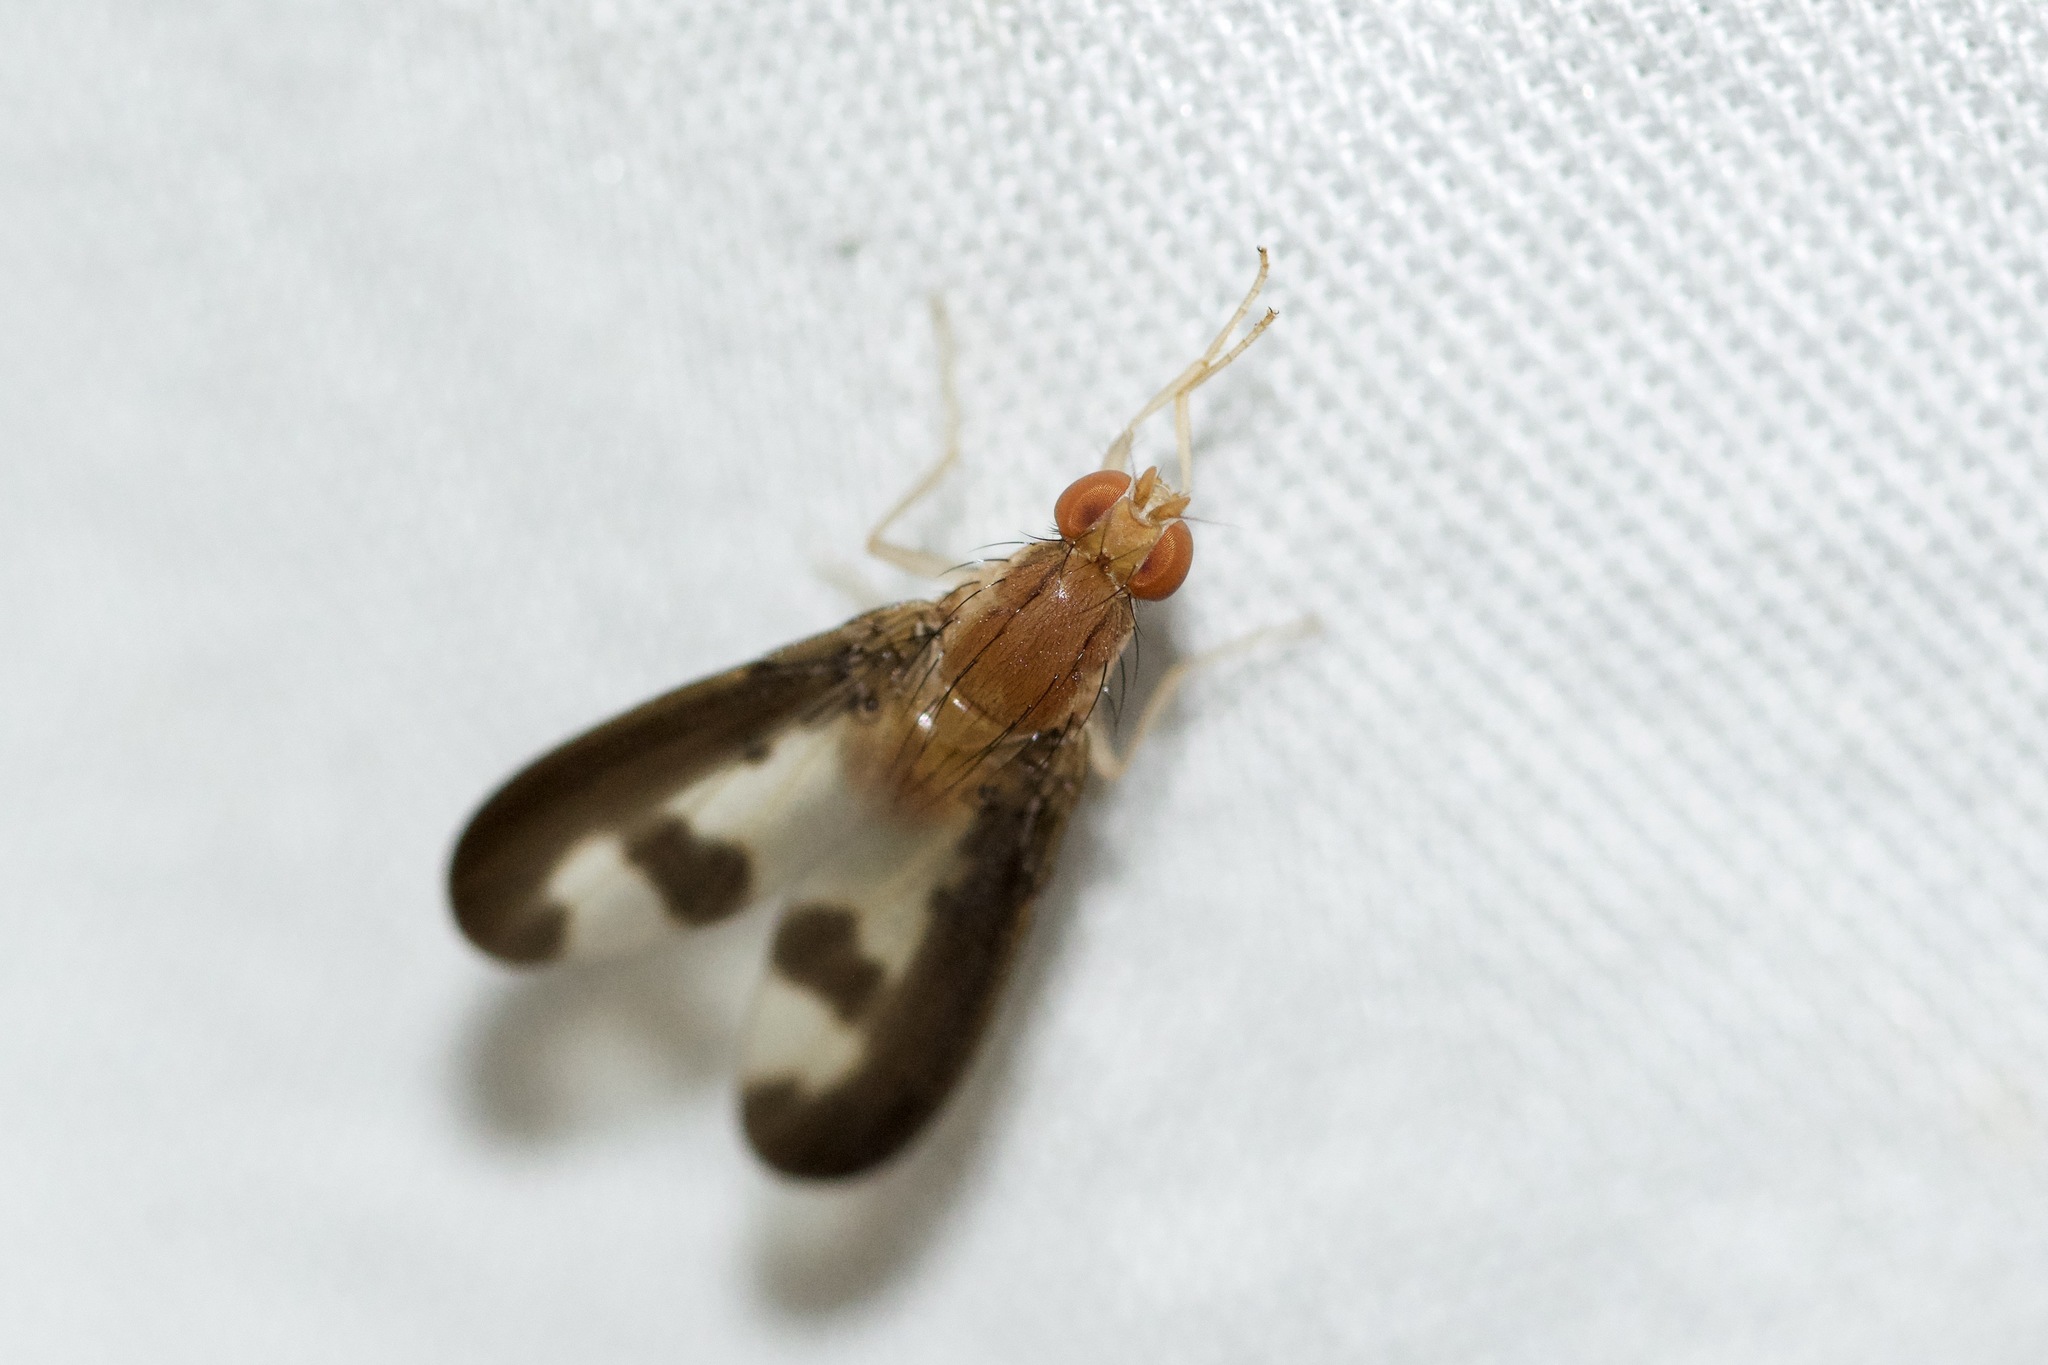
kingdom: Animalia
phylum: Arthropoda
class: Insecta
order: Diptera
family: Pallopteridae
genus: Toxonevra
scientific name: Toxonevra superba
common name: Antlered flutter fly
